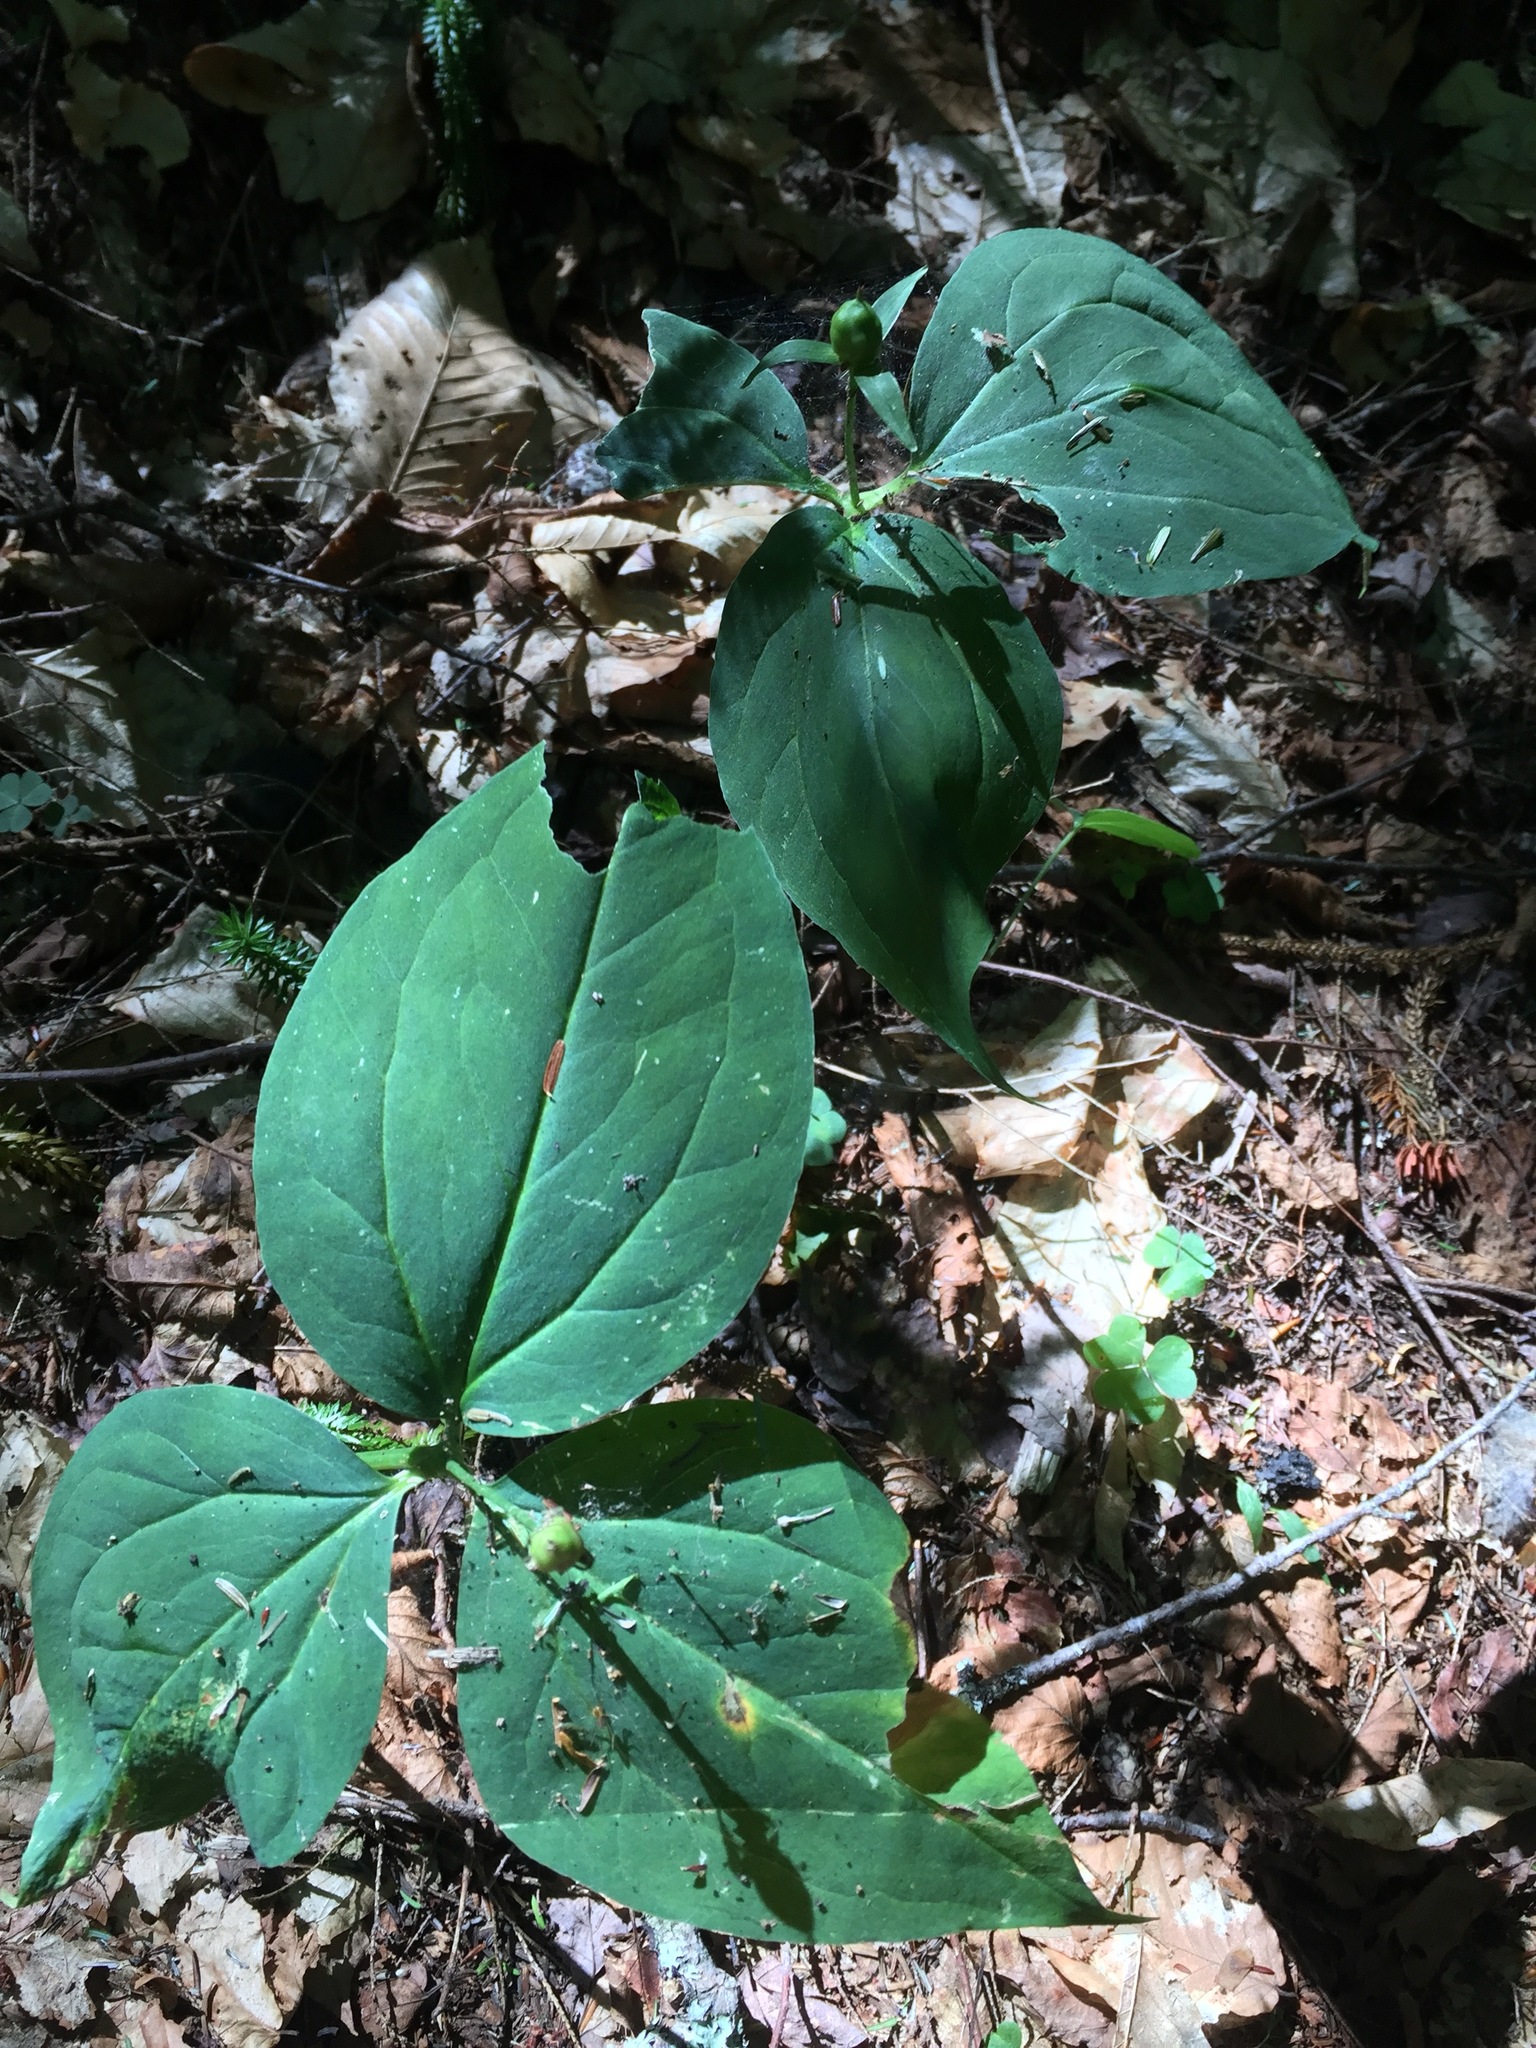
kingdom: Plantae
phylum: Tracheophyta
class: Liliopsida
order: Liliales
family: Melanthiaceae
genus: Trillium
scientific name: Trillium undulatum
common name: Paint trillium
